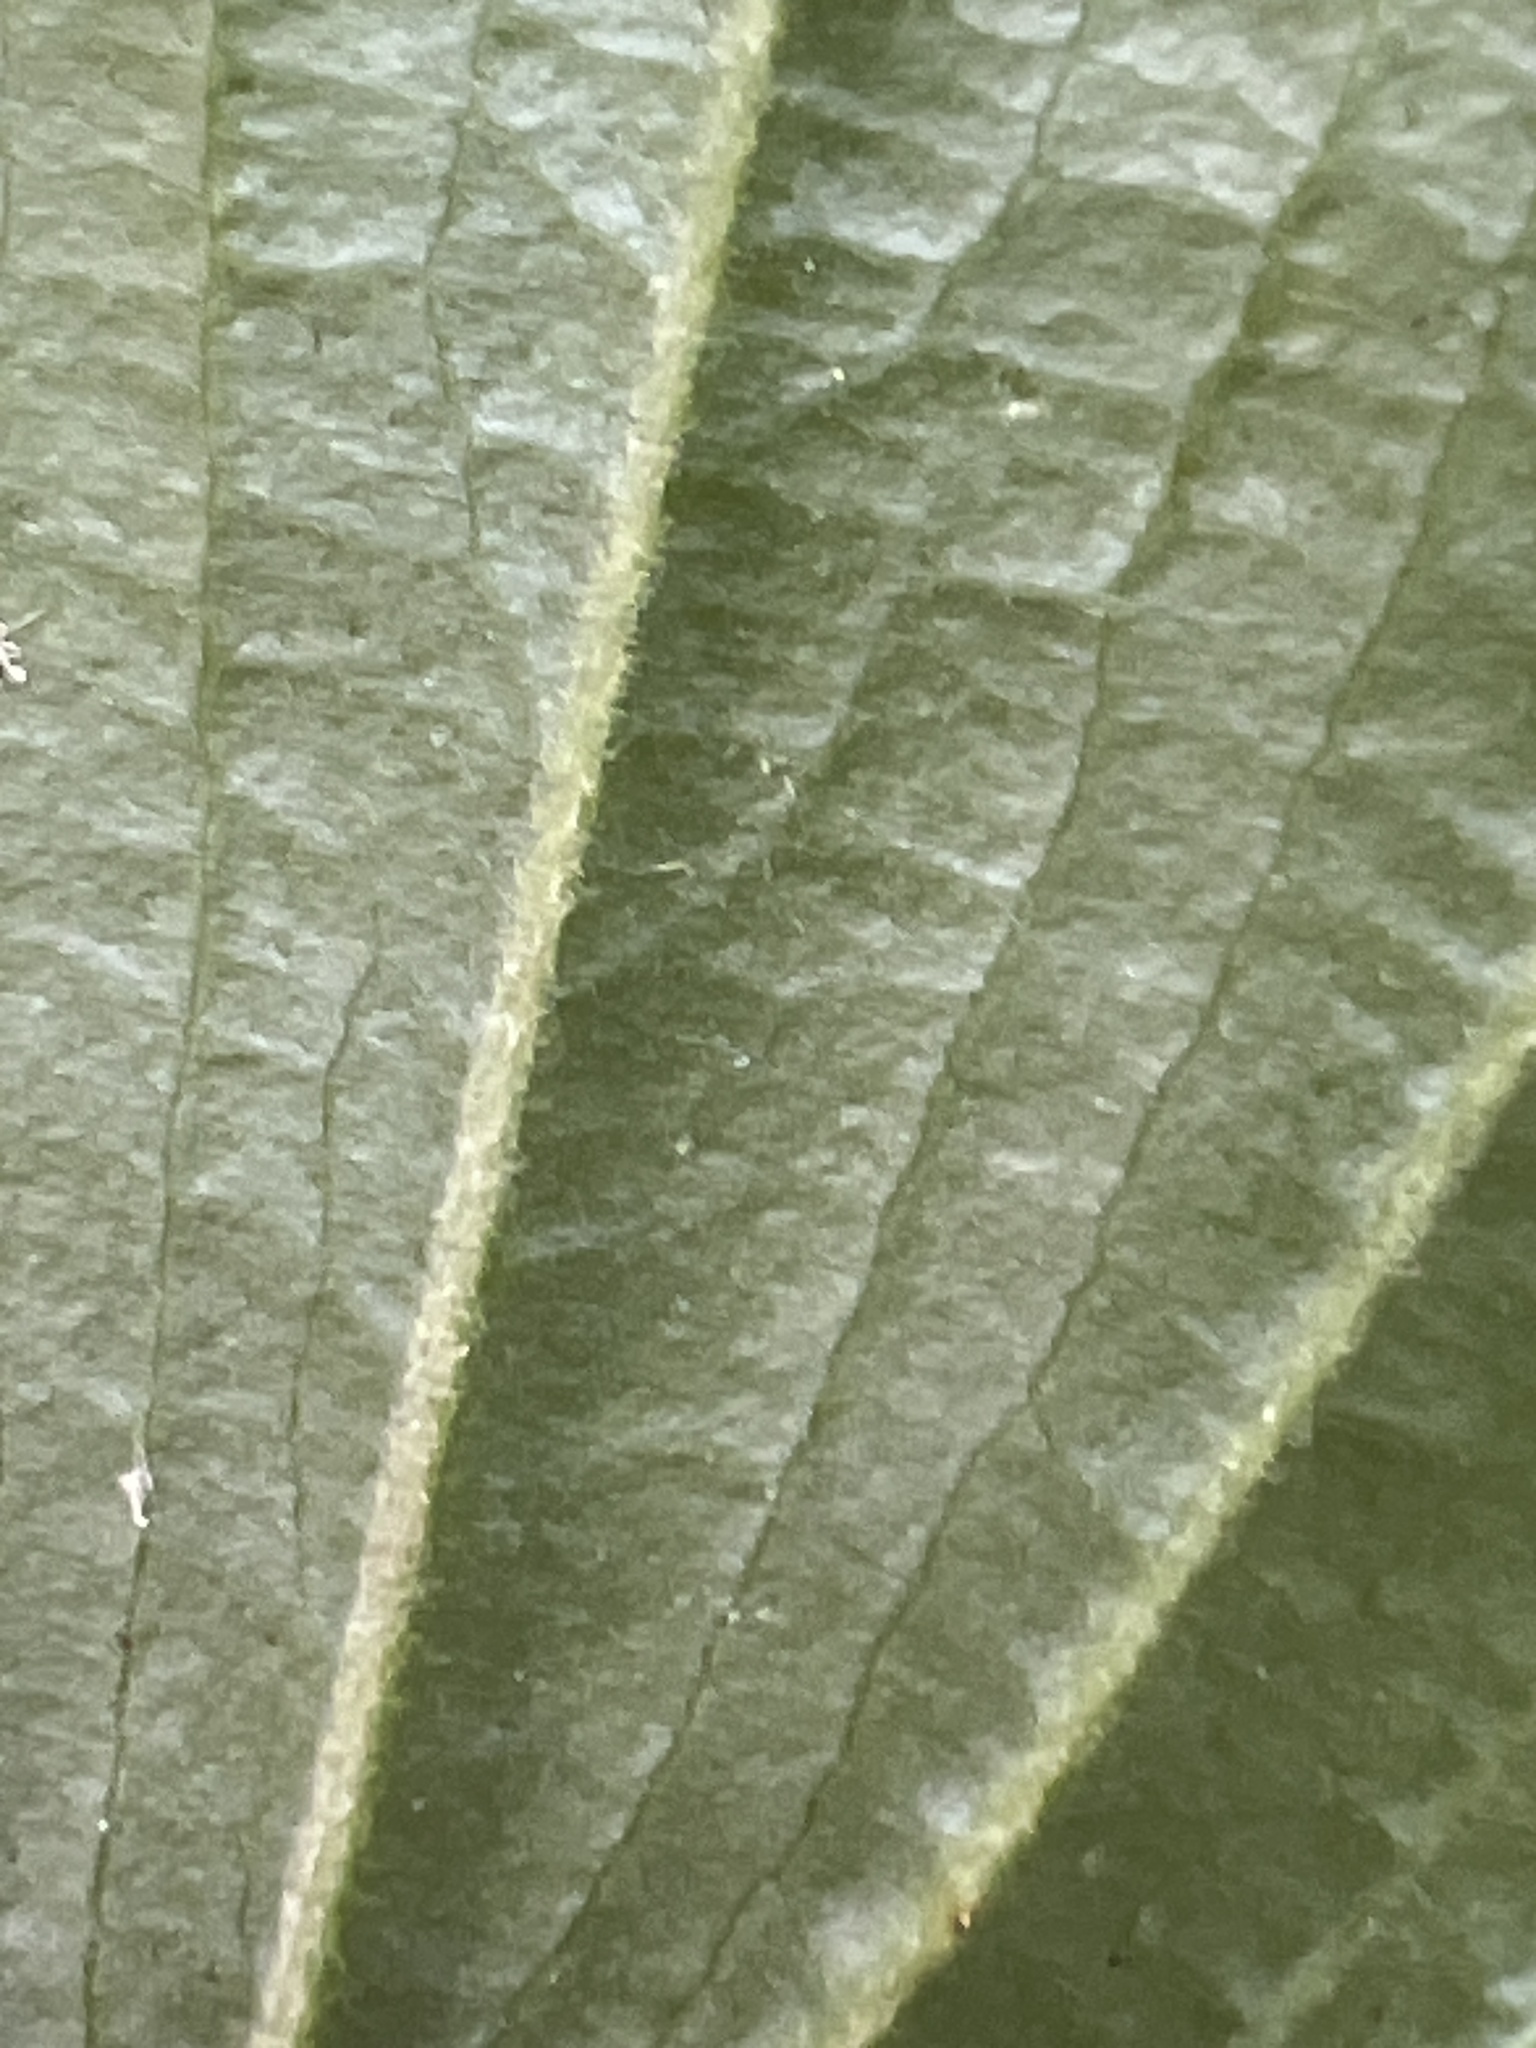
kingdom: Plantae
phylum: Tracheophyta
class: Liliopsida
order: Liliales
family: Liliaceae
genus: Prosartes
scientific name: Prosartes lanuginosa
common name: Hairy mandarin
